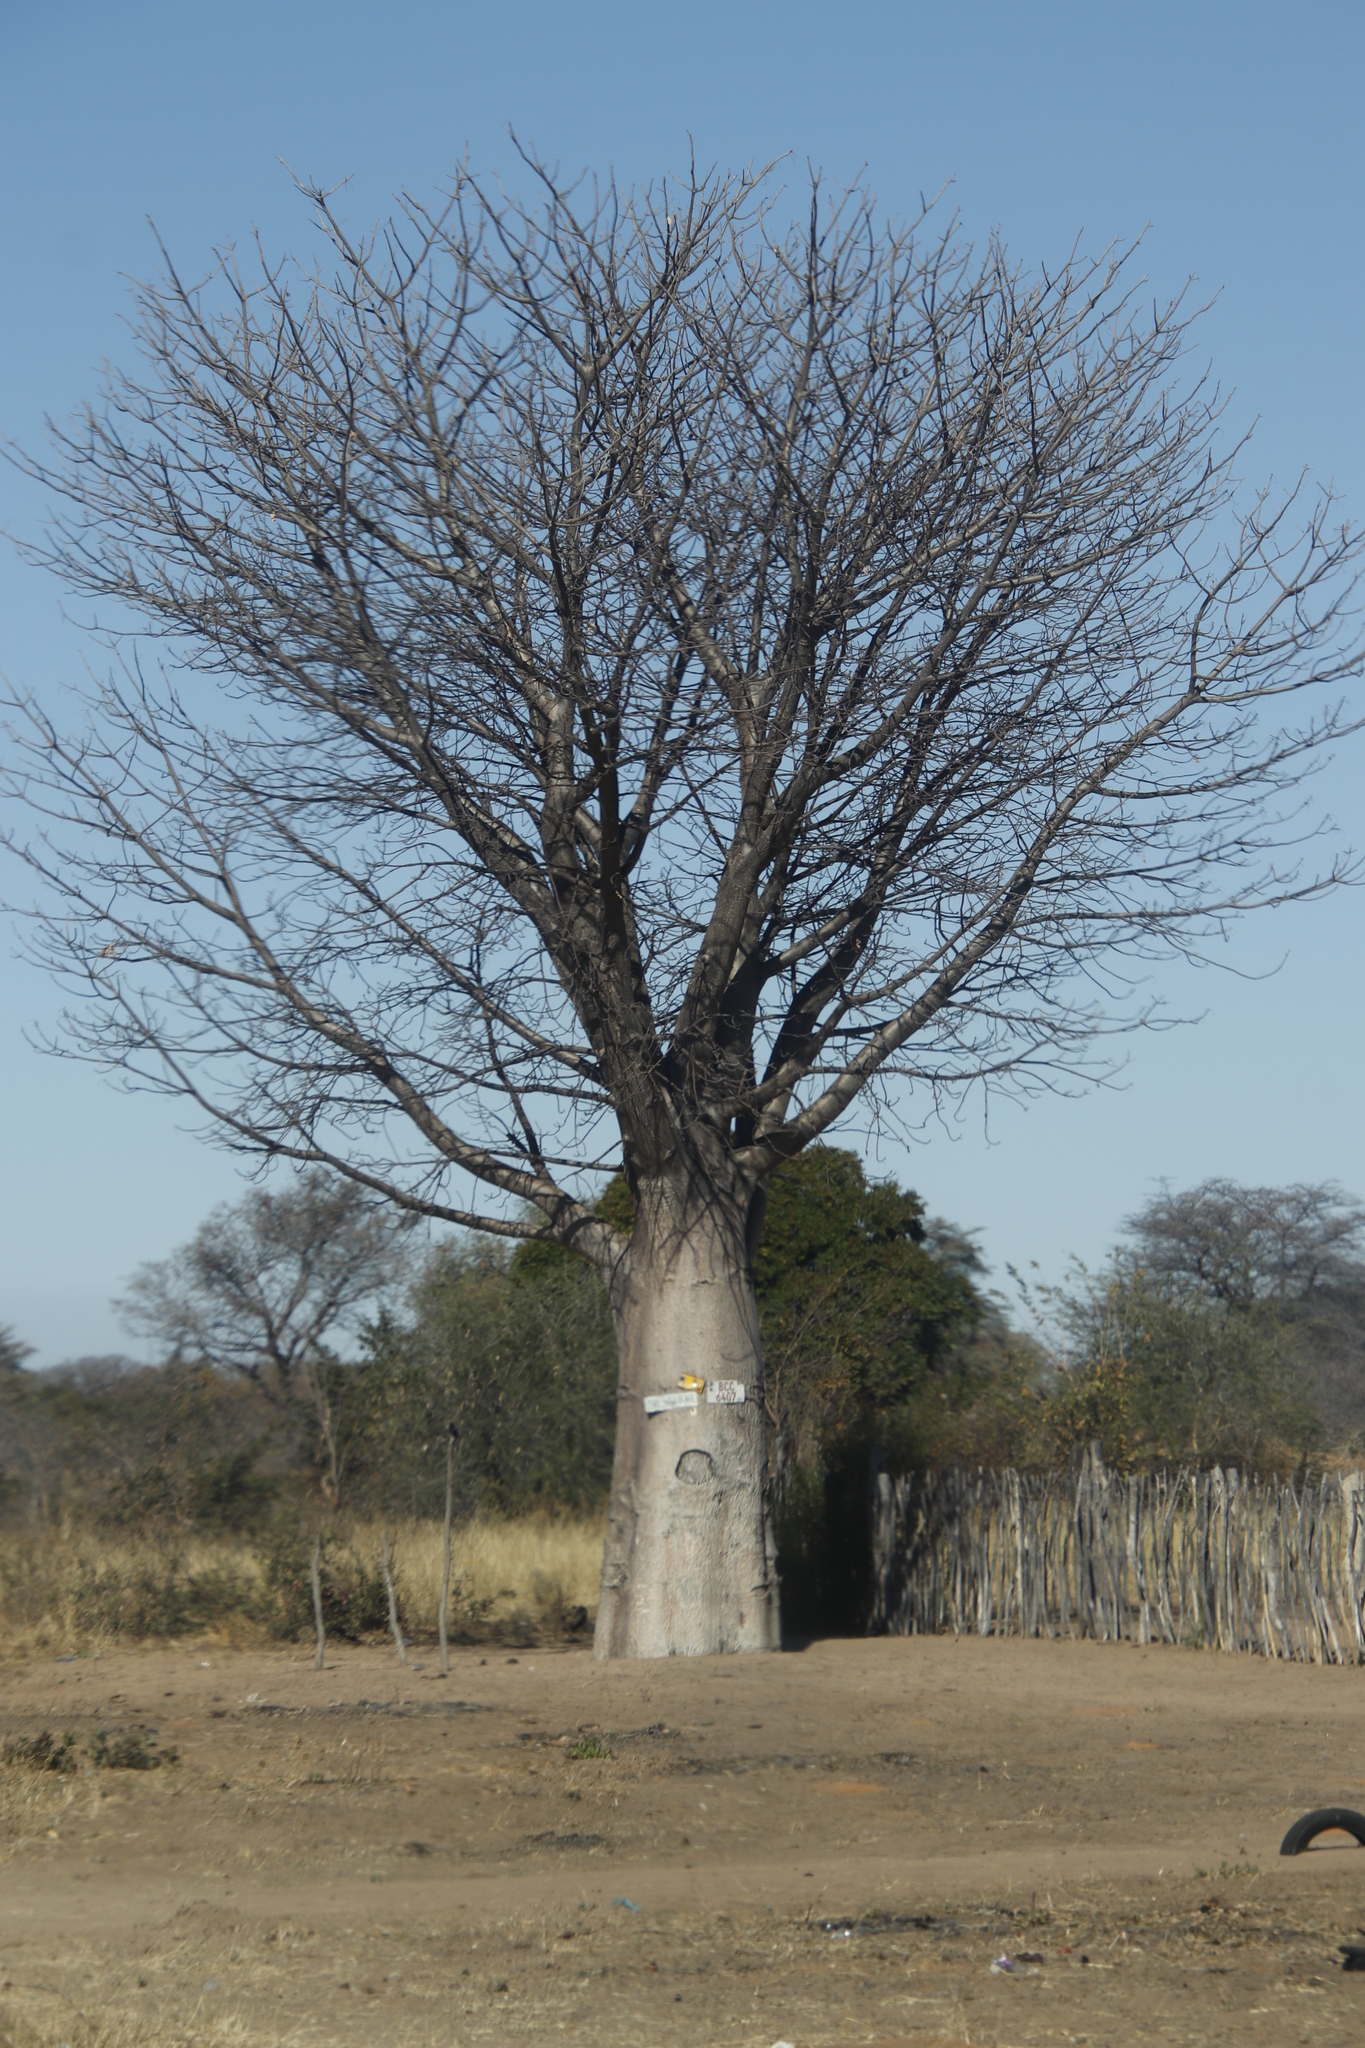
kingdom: Plantae
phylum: Tracheophyta
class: Magnoliopsida
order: Malvales
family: Malvaceae
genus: Adansonia
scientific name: Adansonia digitata
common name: Dead-rat-tree
